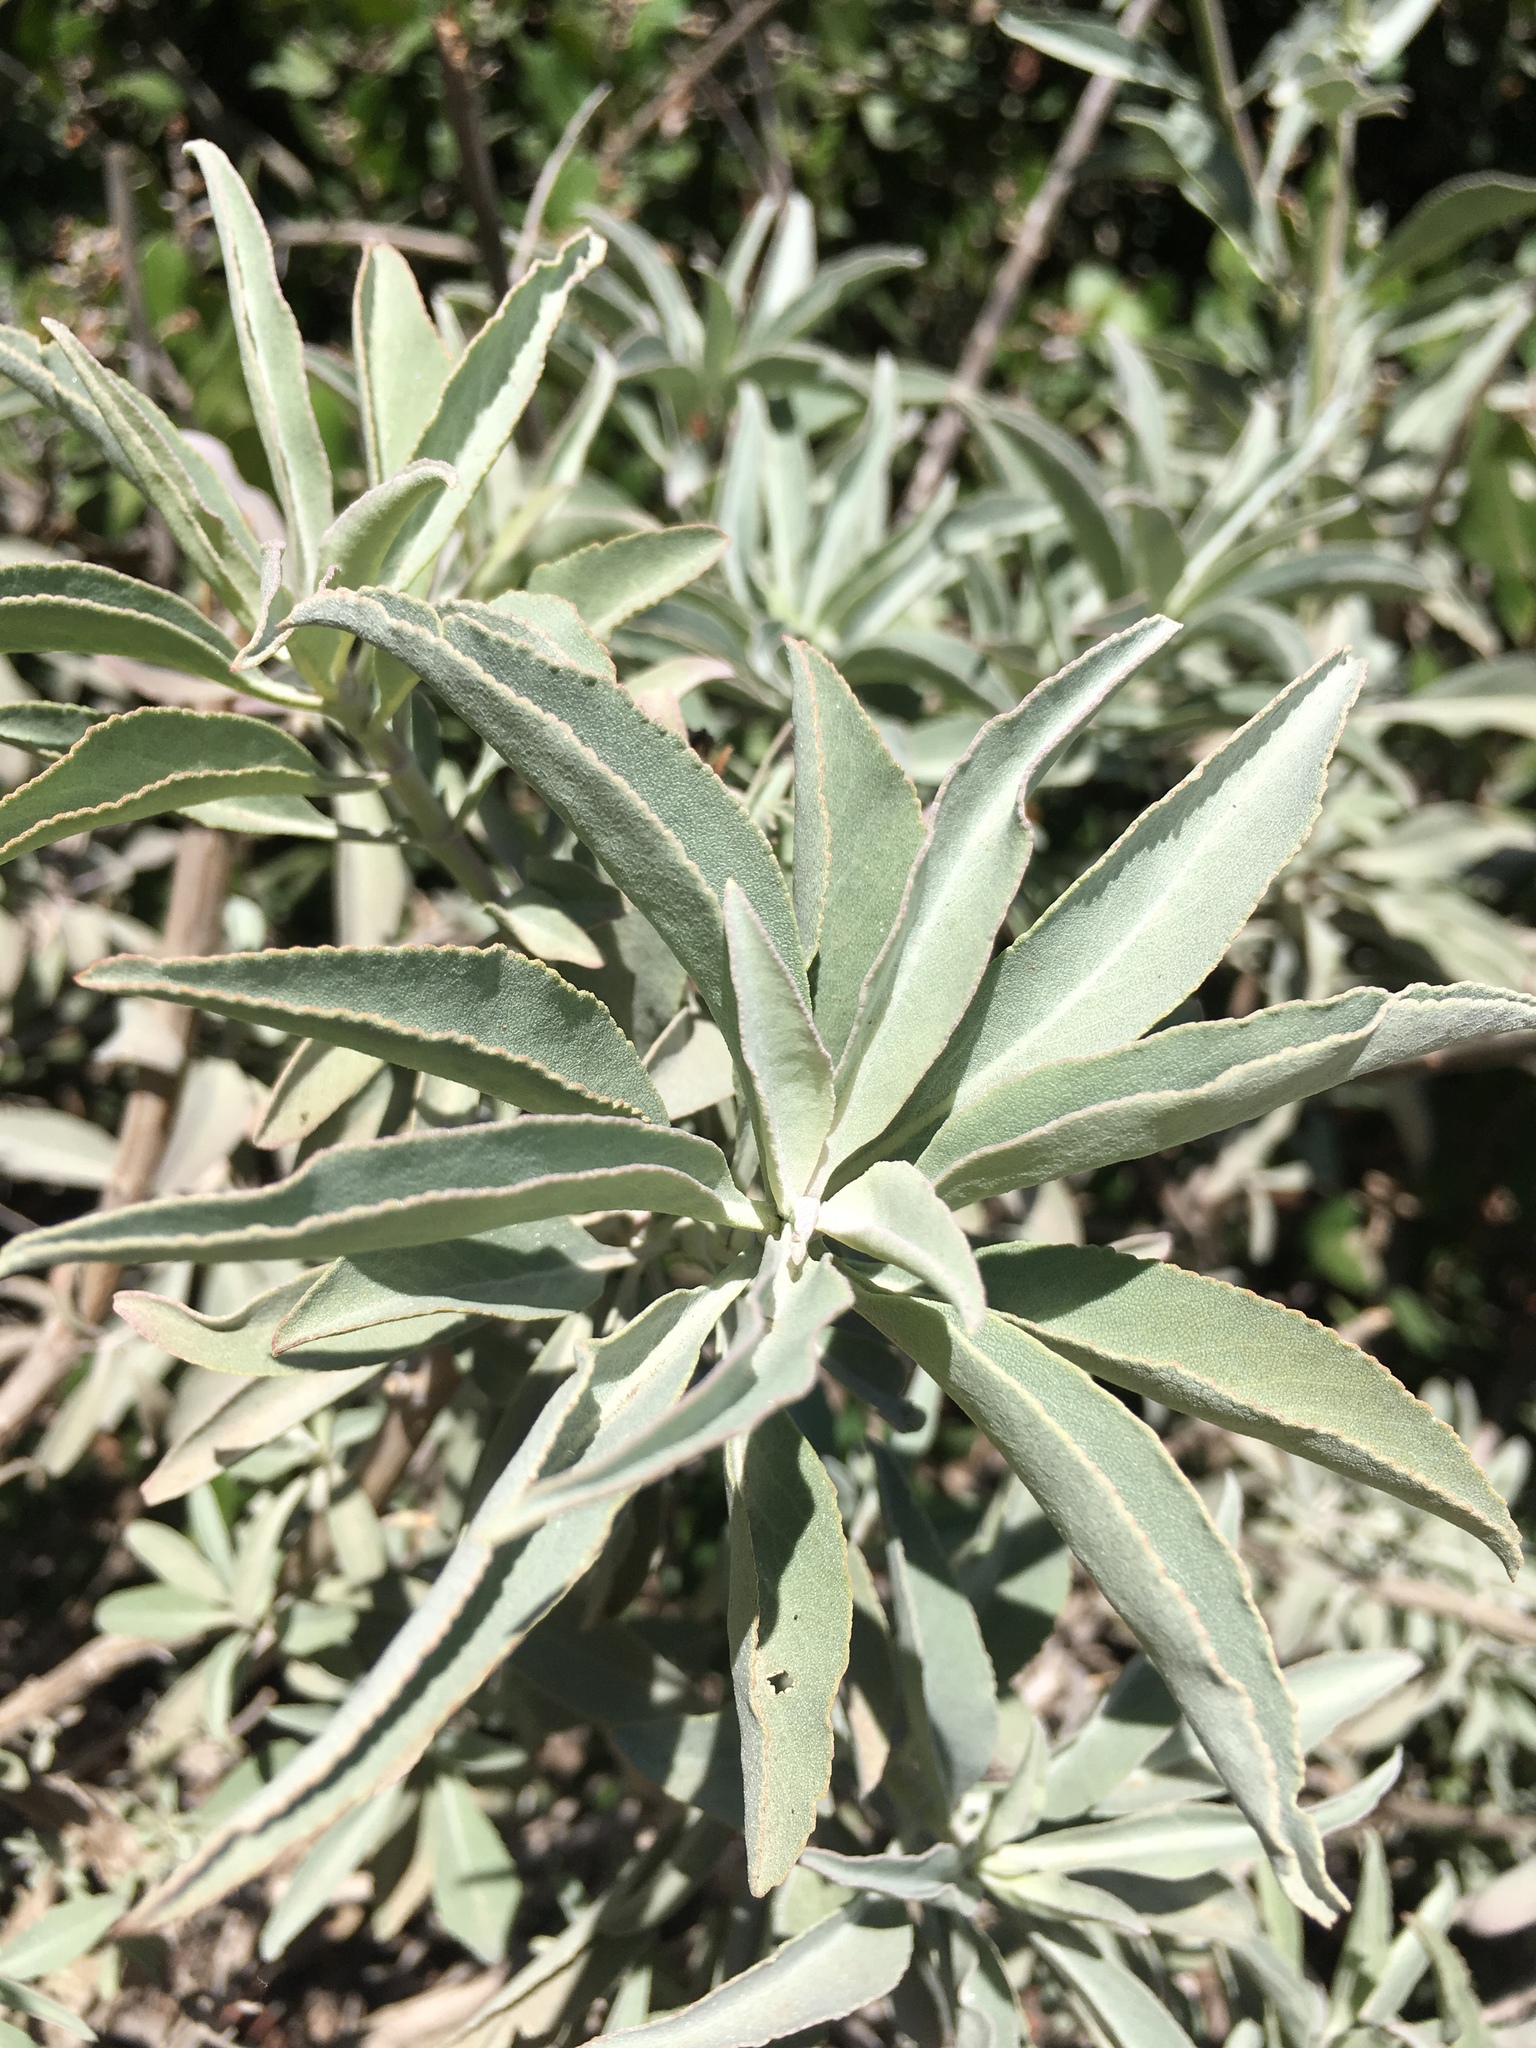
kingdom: Plantae
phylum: Tracheophyta
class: Magnoliopsida
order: Lamiales
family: Lamiaceae
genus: Salvia
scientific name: Salvia apiana
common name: White sage
